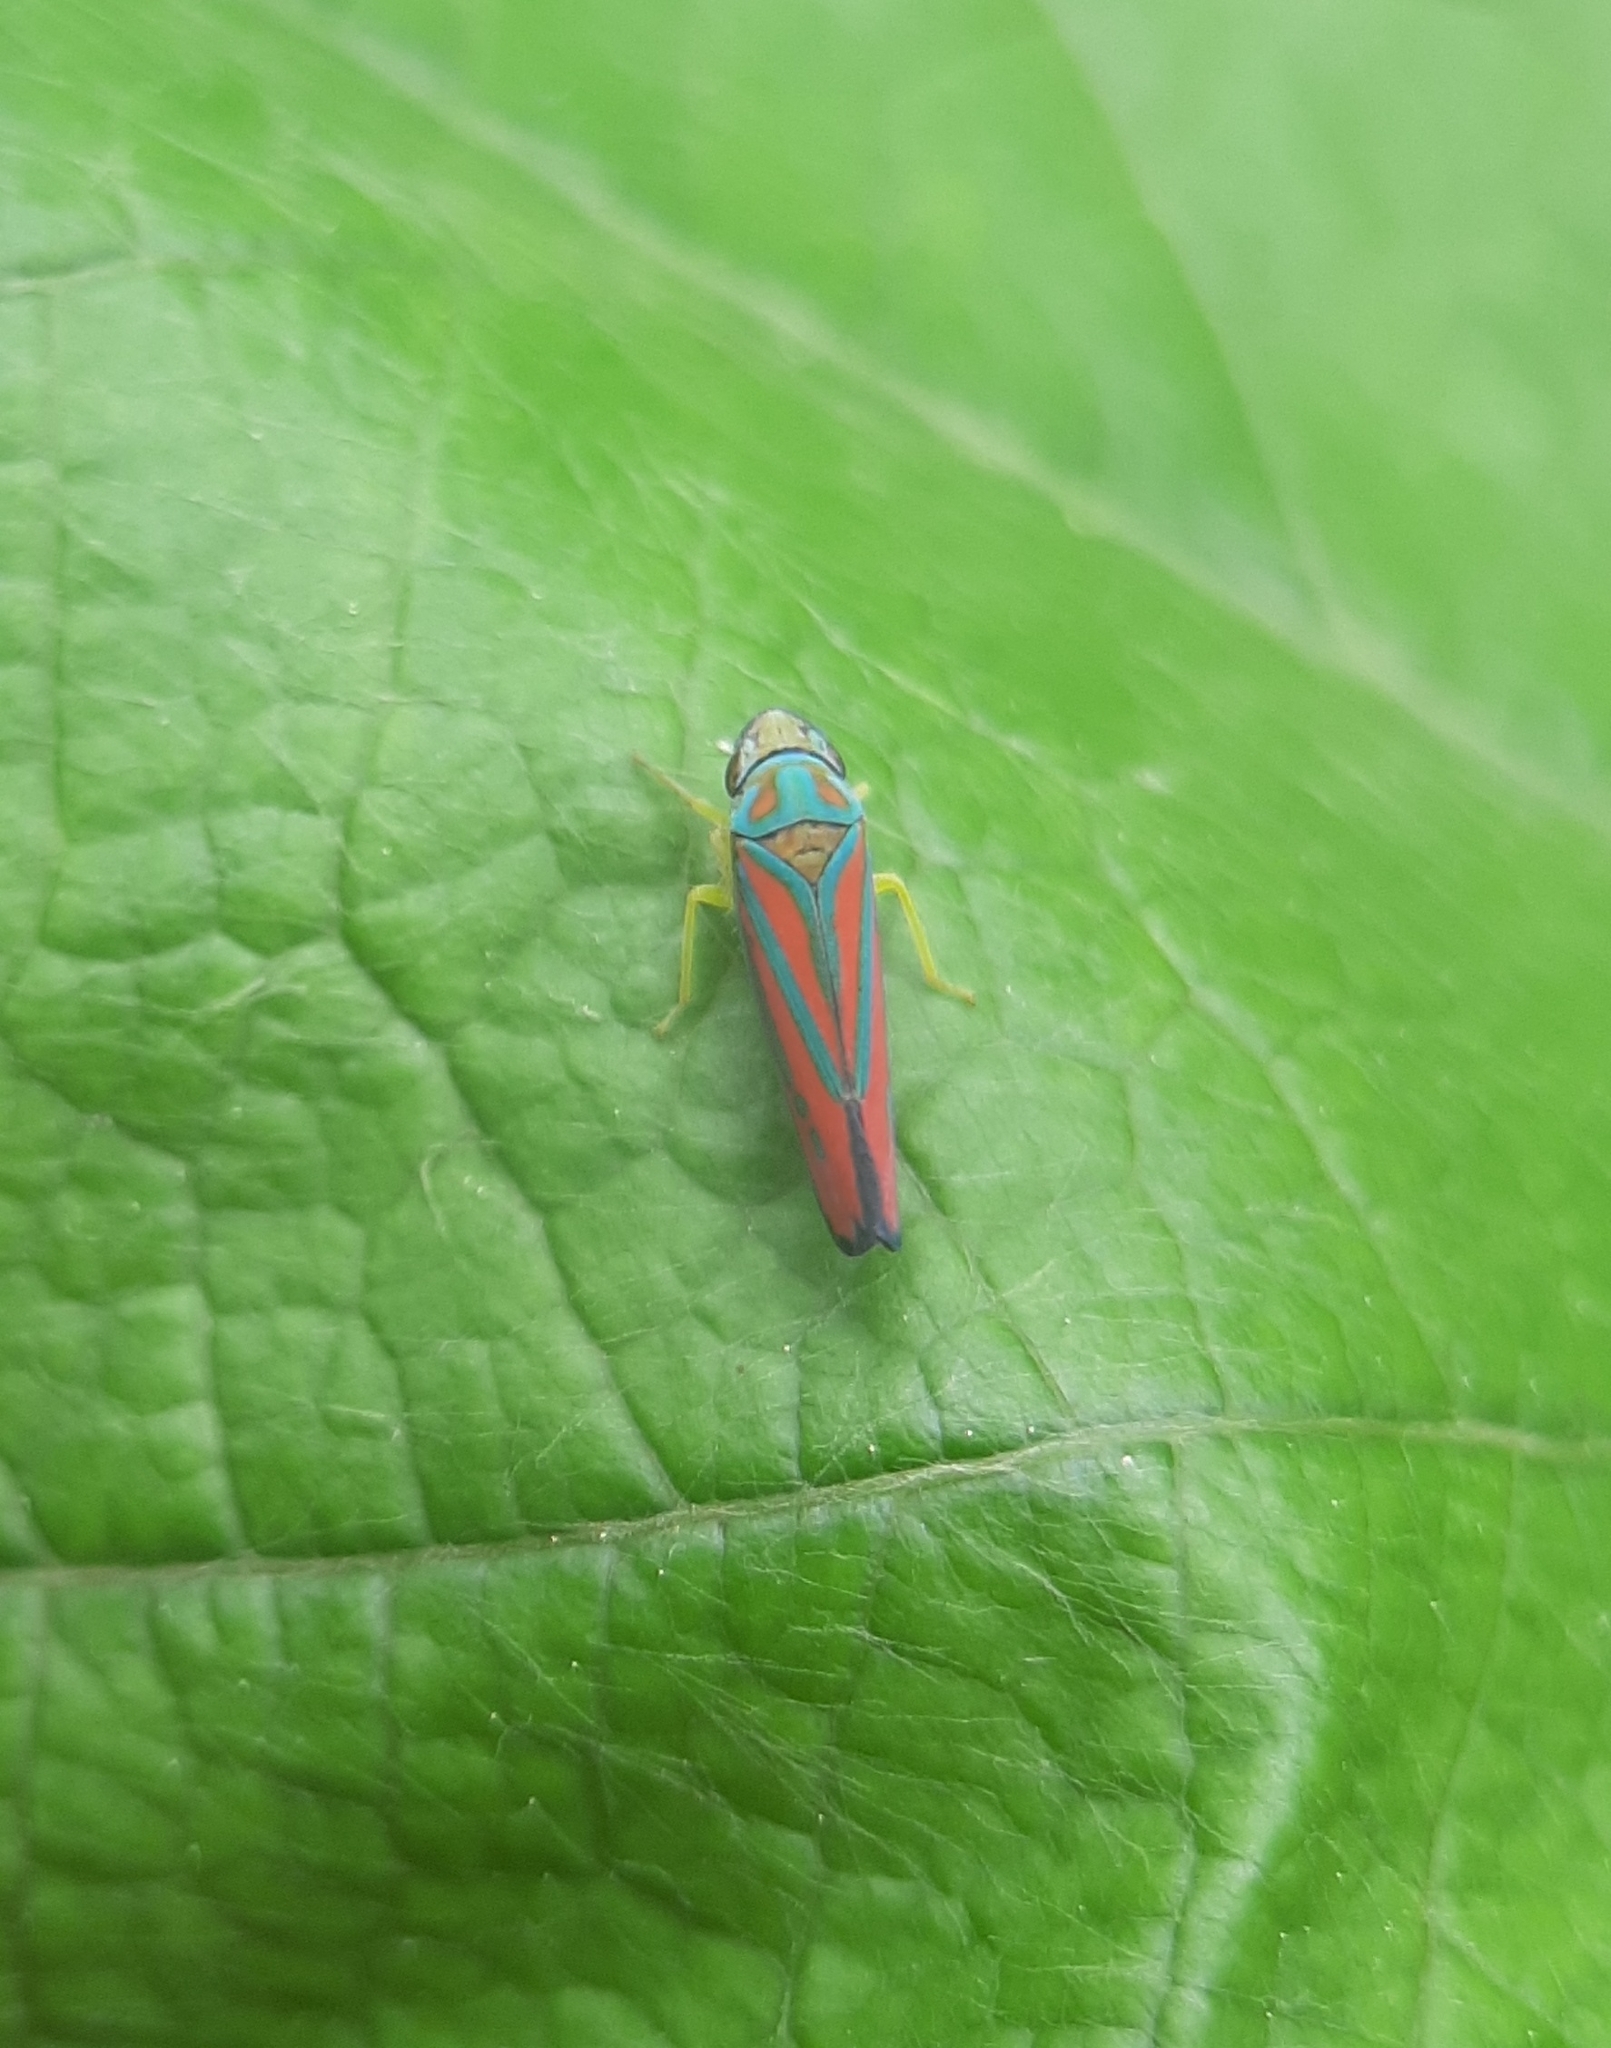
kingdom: Animalia
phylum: Arthropoda
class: Insecta
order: Hemiptera
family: Cicadellidae
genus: Graphocephala
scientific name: Graphocephala coccinea
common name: Candy-striped leafhopper
